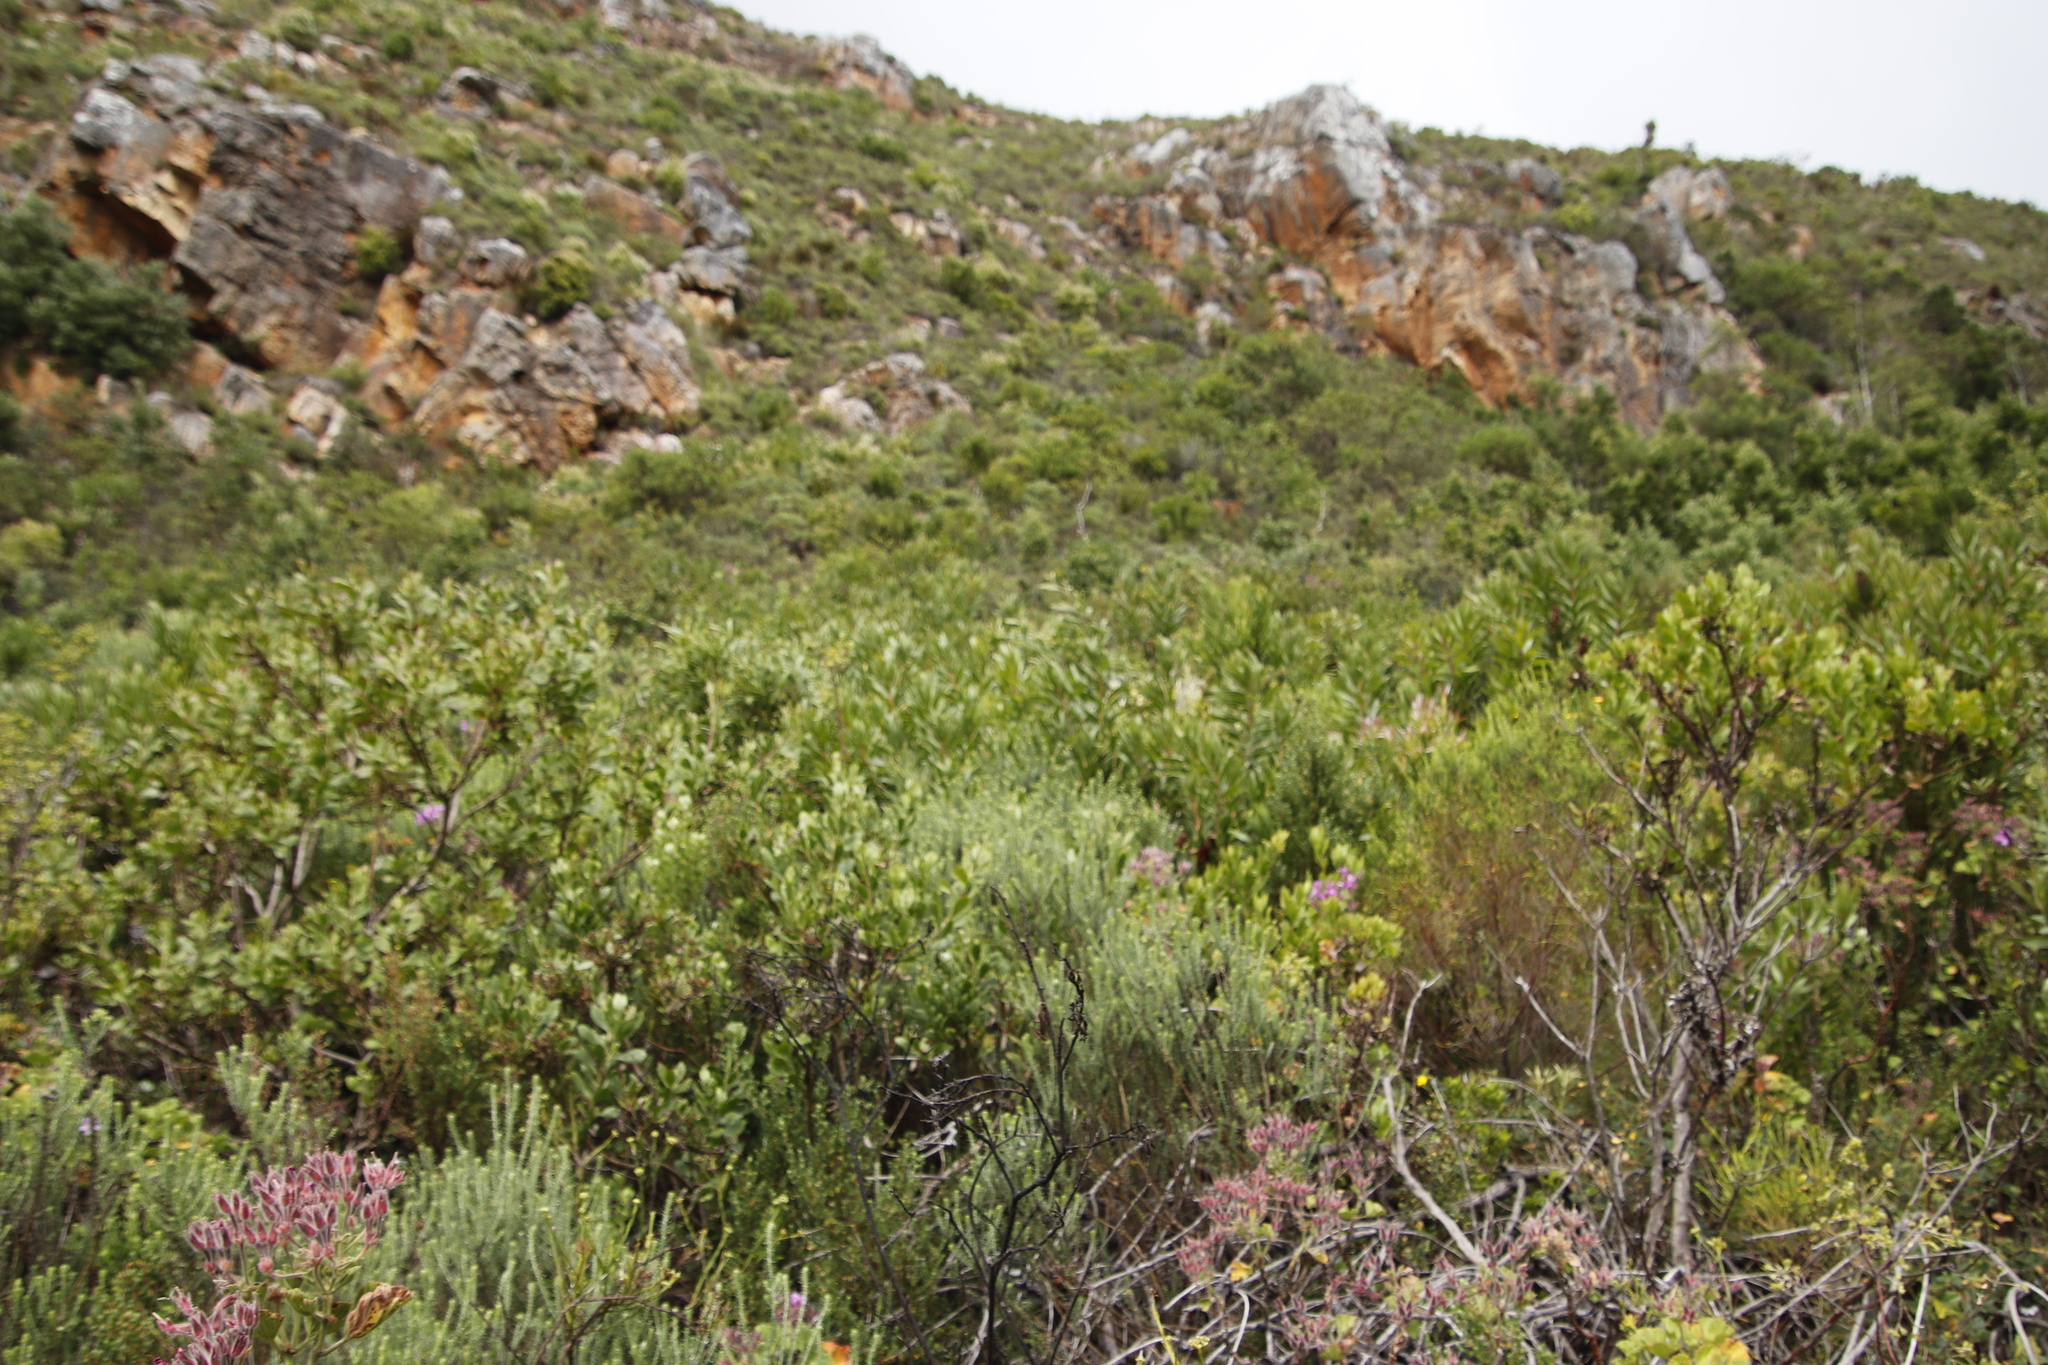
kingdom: Plantae
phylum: Tracheophyta
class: Magnoliopsida
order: Asterales
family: Asteraceae
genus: Metalasia
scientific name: Metalasia densa
